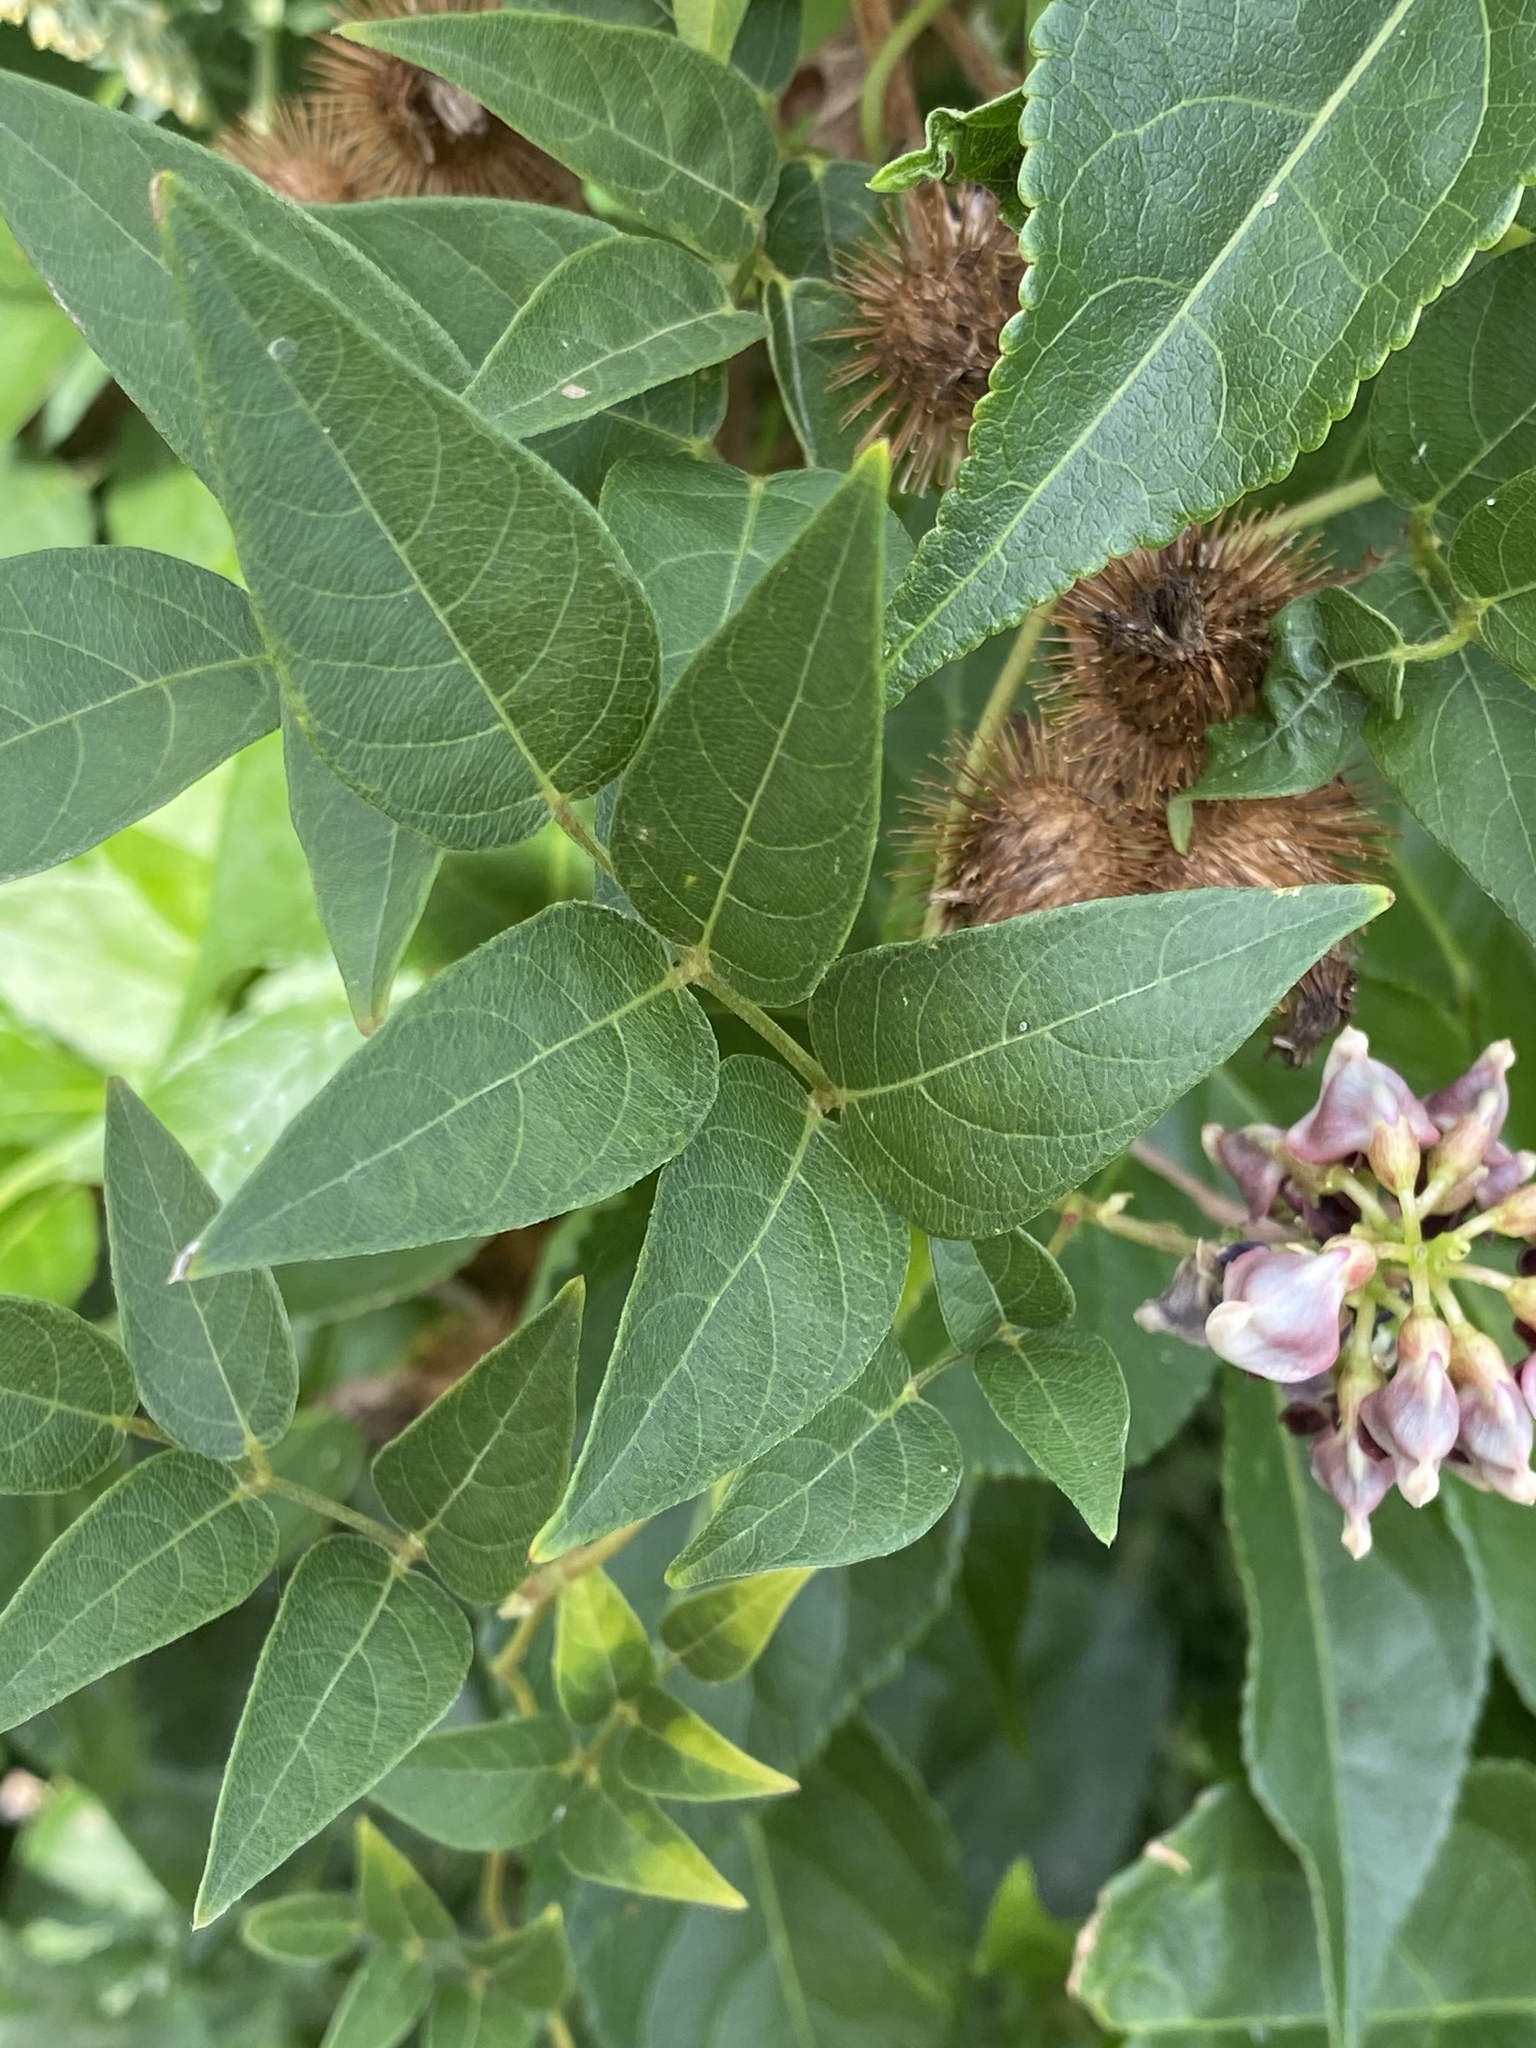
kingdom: Plantae
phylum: Tracheophyta
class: Magnoliopsida
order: Fabales
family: Fabaceae
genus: Apios
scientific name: Apios americana
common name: American potato-bean
